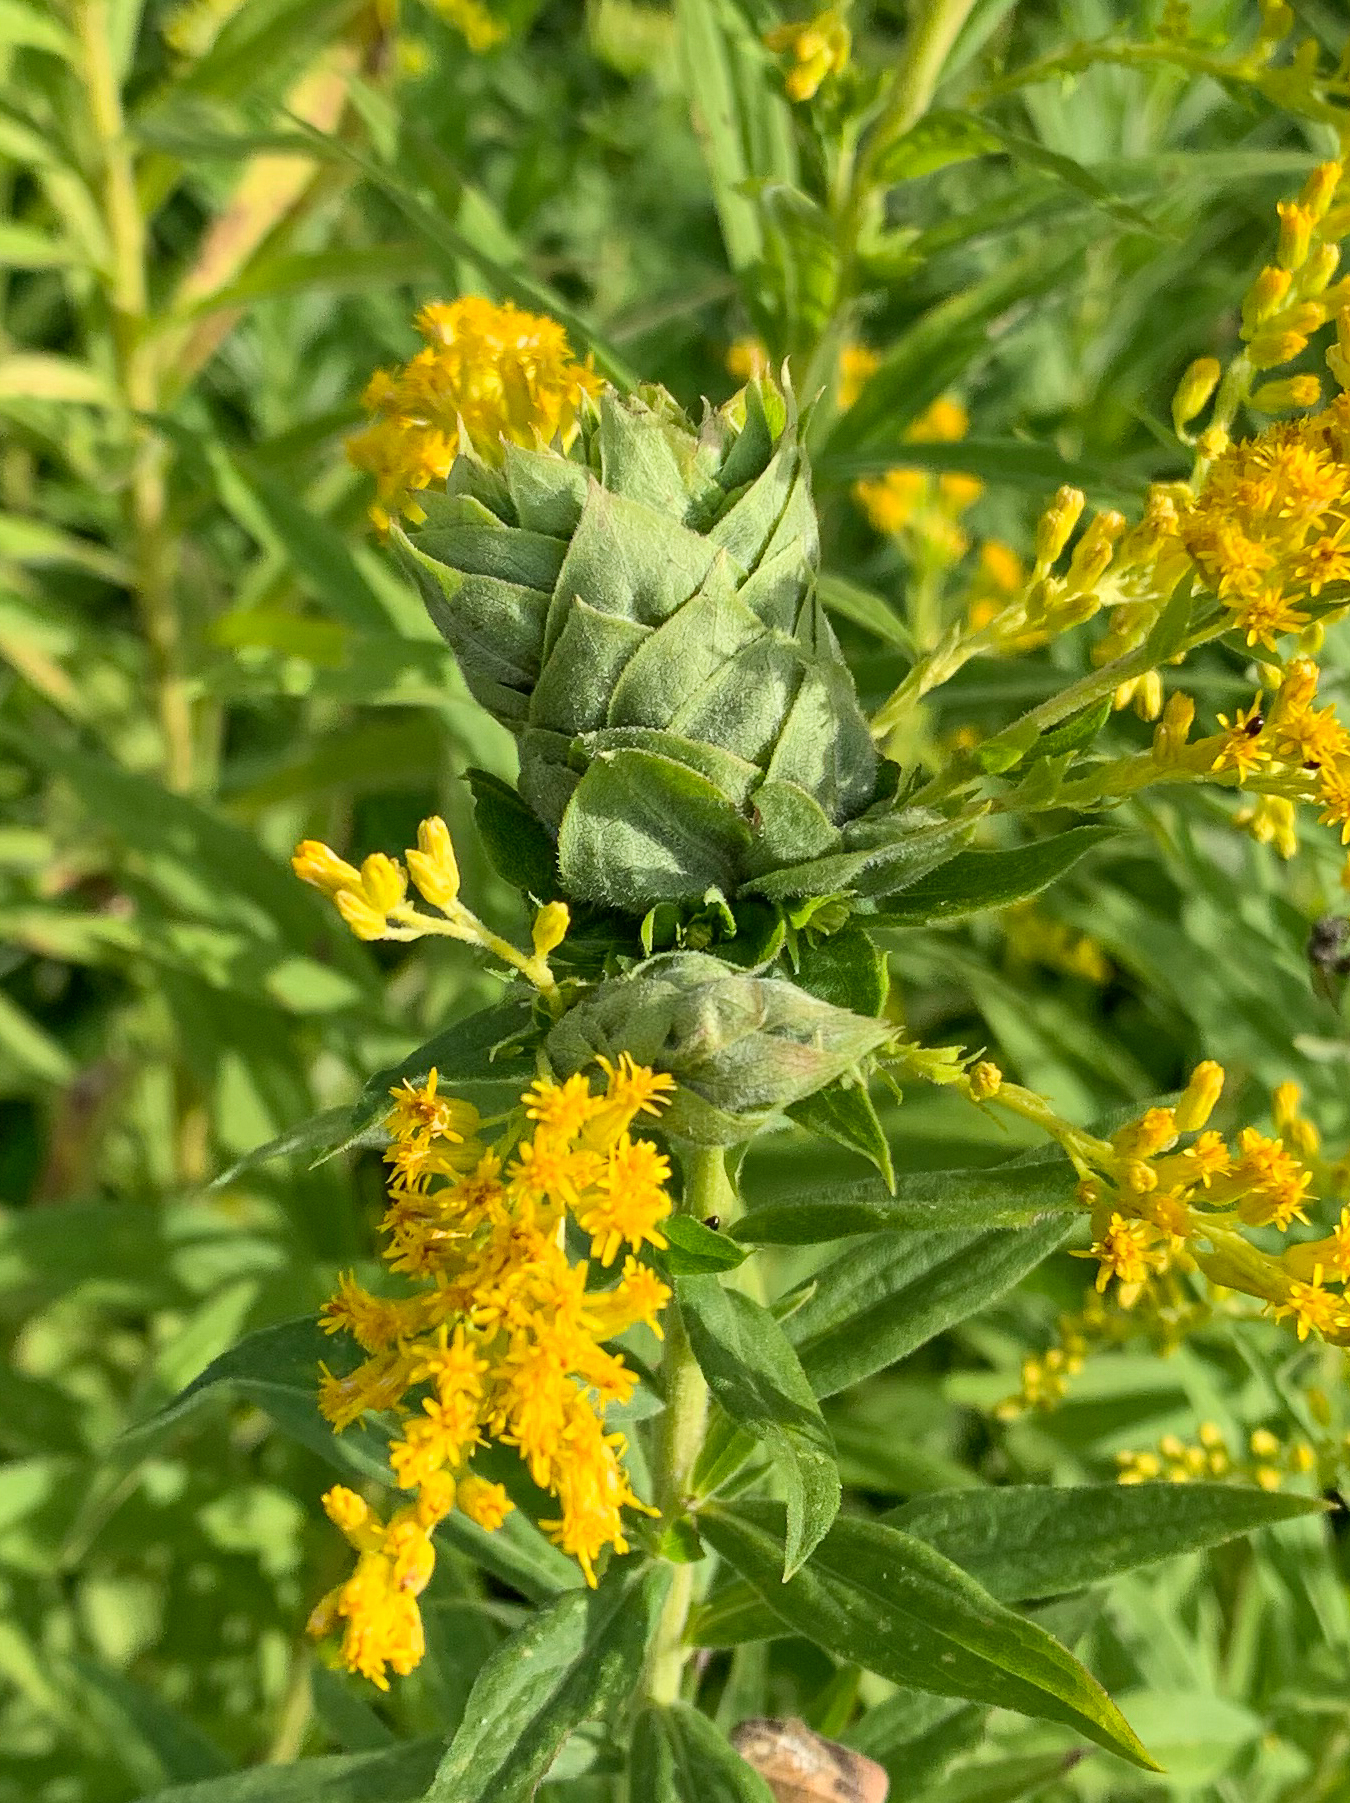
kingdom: Animalia
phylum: Arthropoda
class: Insecta
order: Diptera
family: Cecidomyiidae
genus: Rhopalomyia
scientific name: Rhopalomyia solidaginis
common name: Goldenrod bunch gall midge
